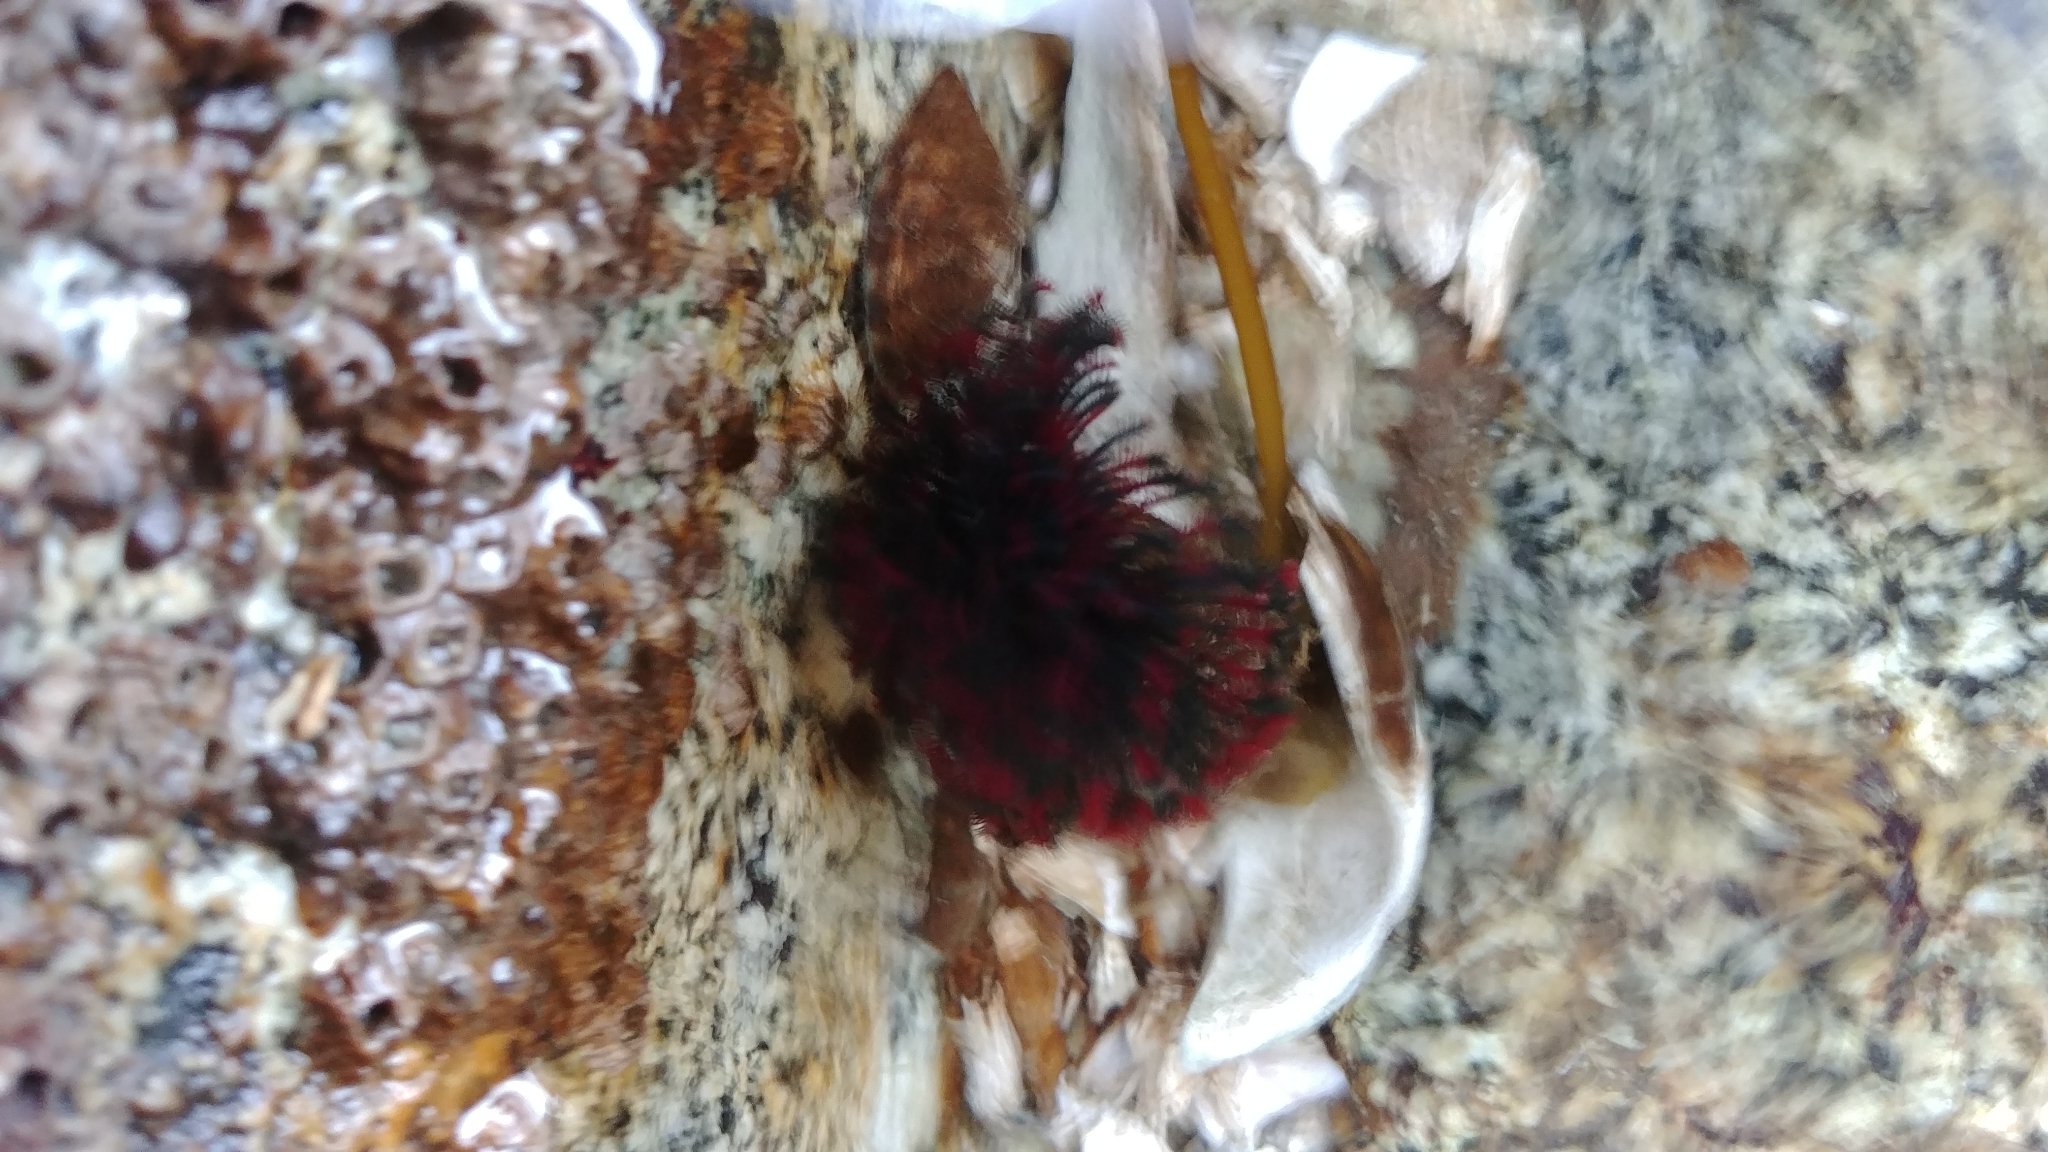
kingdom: Animalia
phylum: Annelida
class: Polychaeta
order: Sabellida
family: Sabellidae
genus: Eudistylia
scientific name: Eudistylia vancouveri
